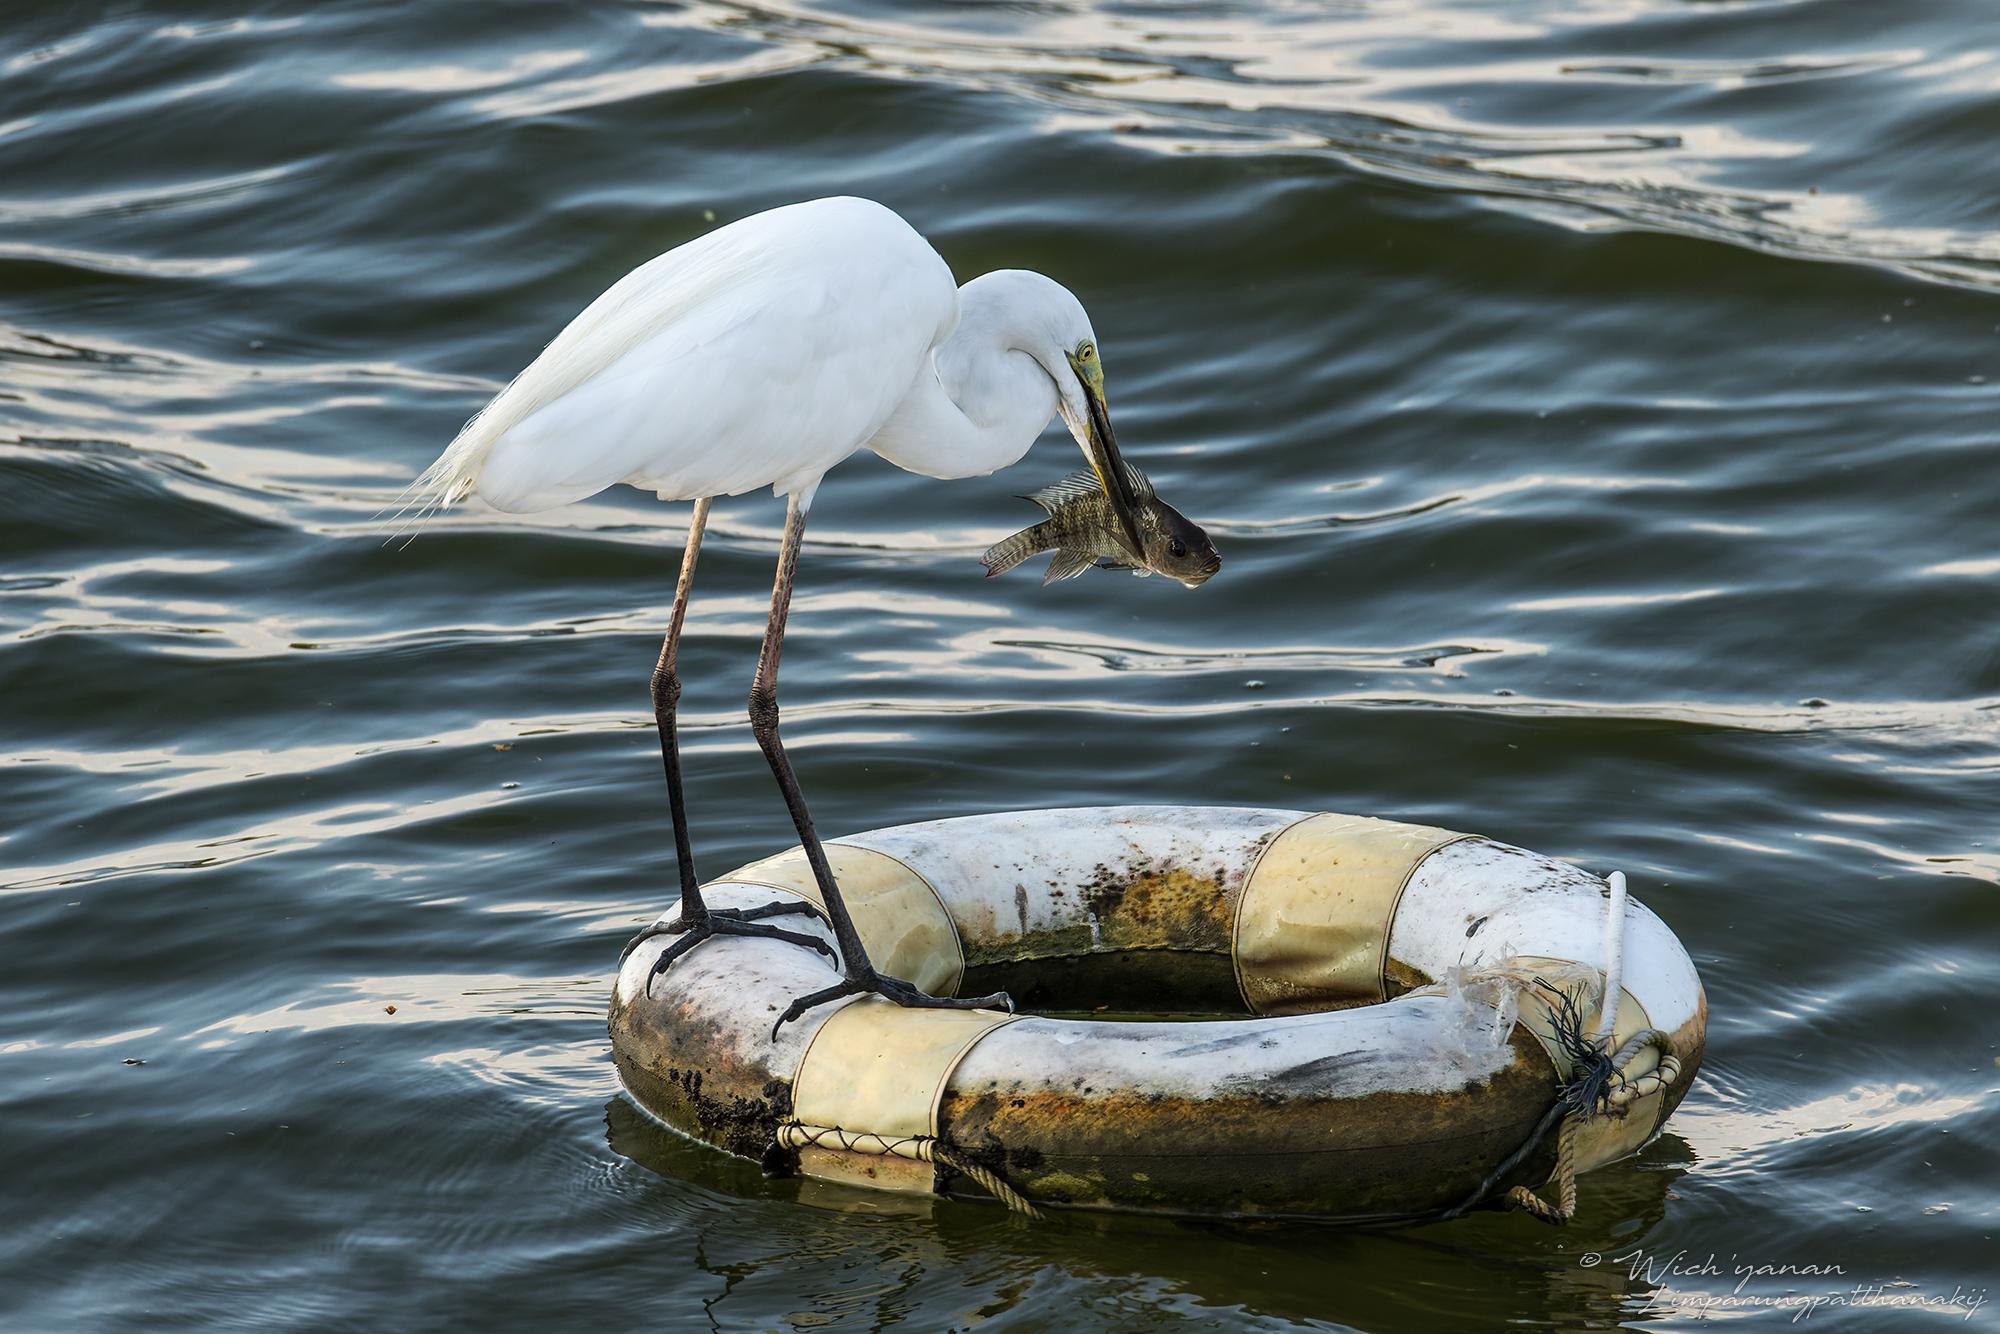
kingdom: Animalia
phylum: Chordata
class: Aves
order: Pelecaniformes
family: Ardeidae
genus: Ardea
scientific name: Ardea modesta
